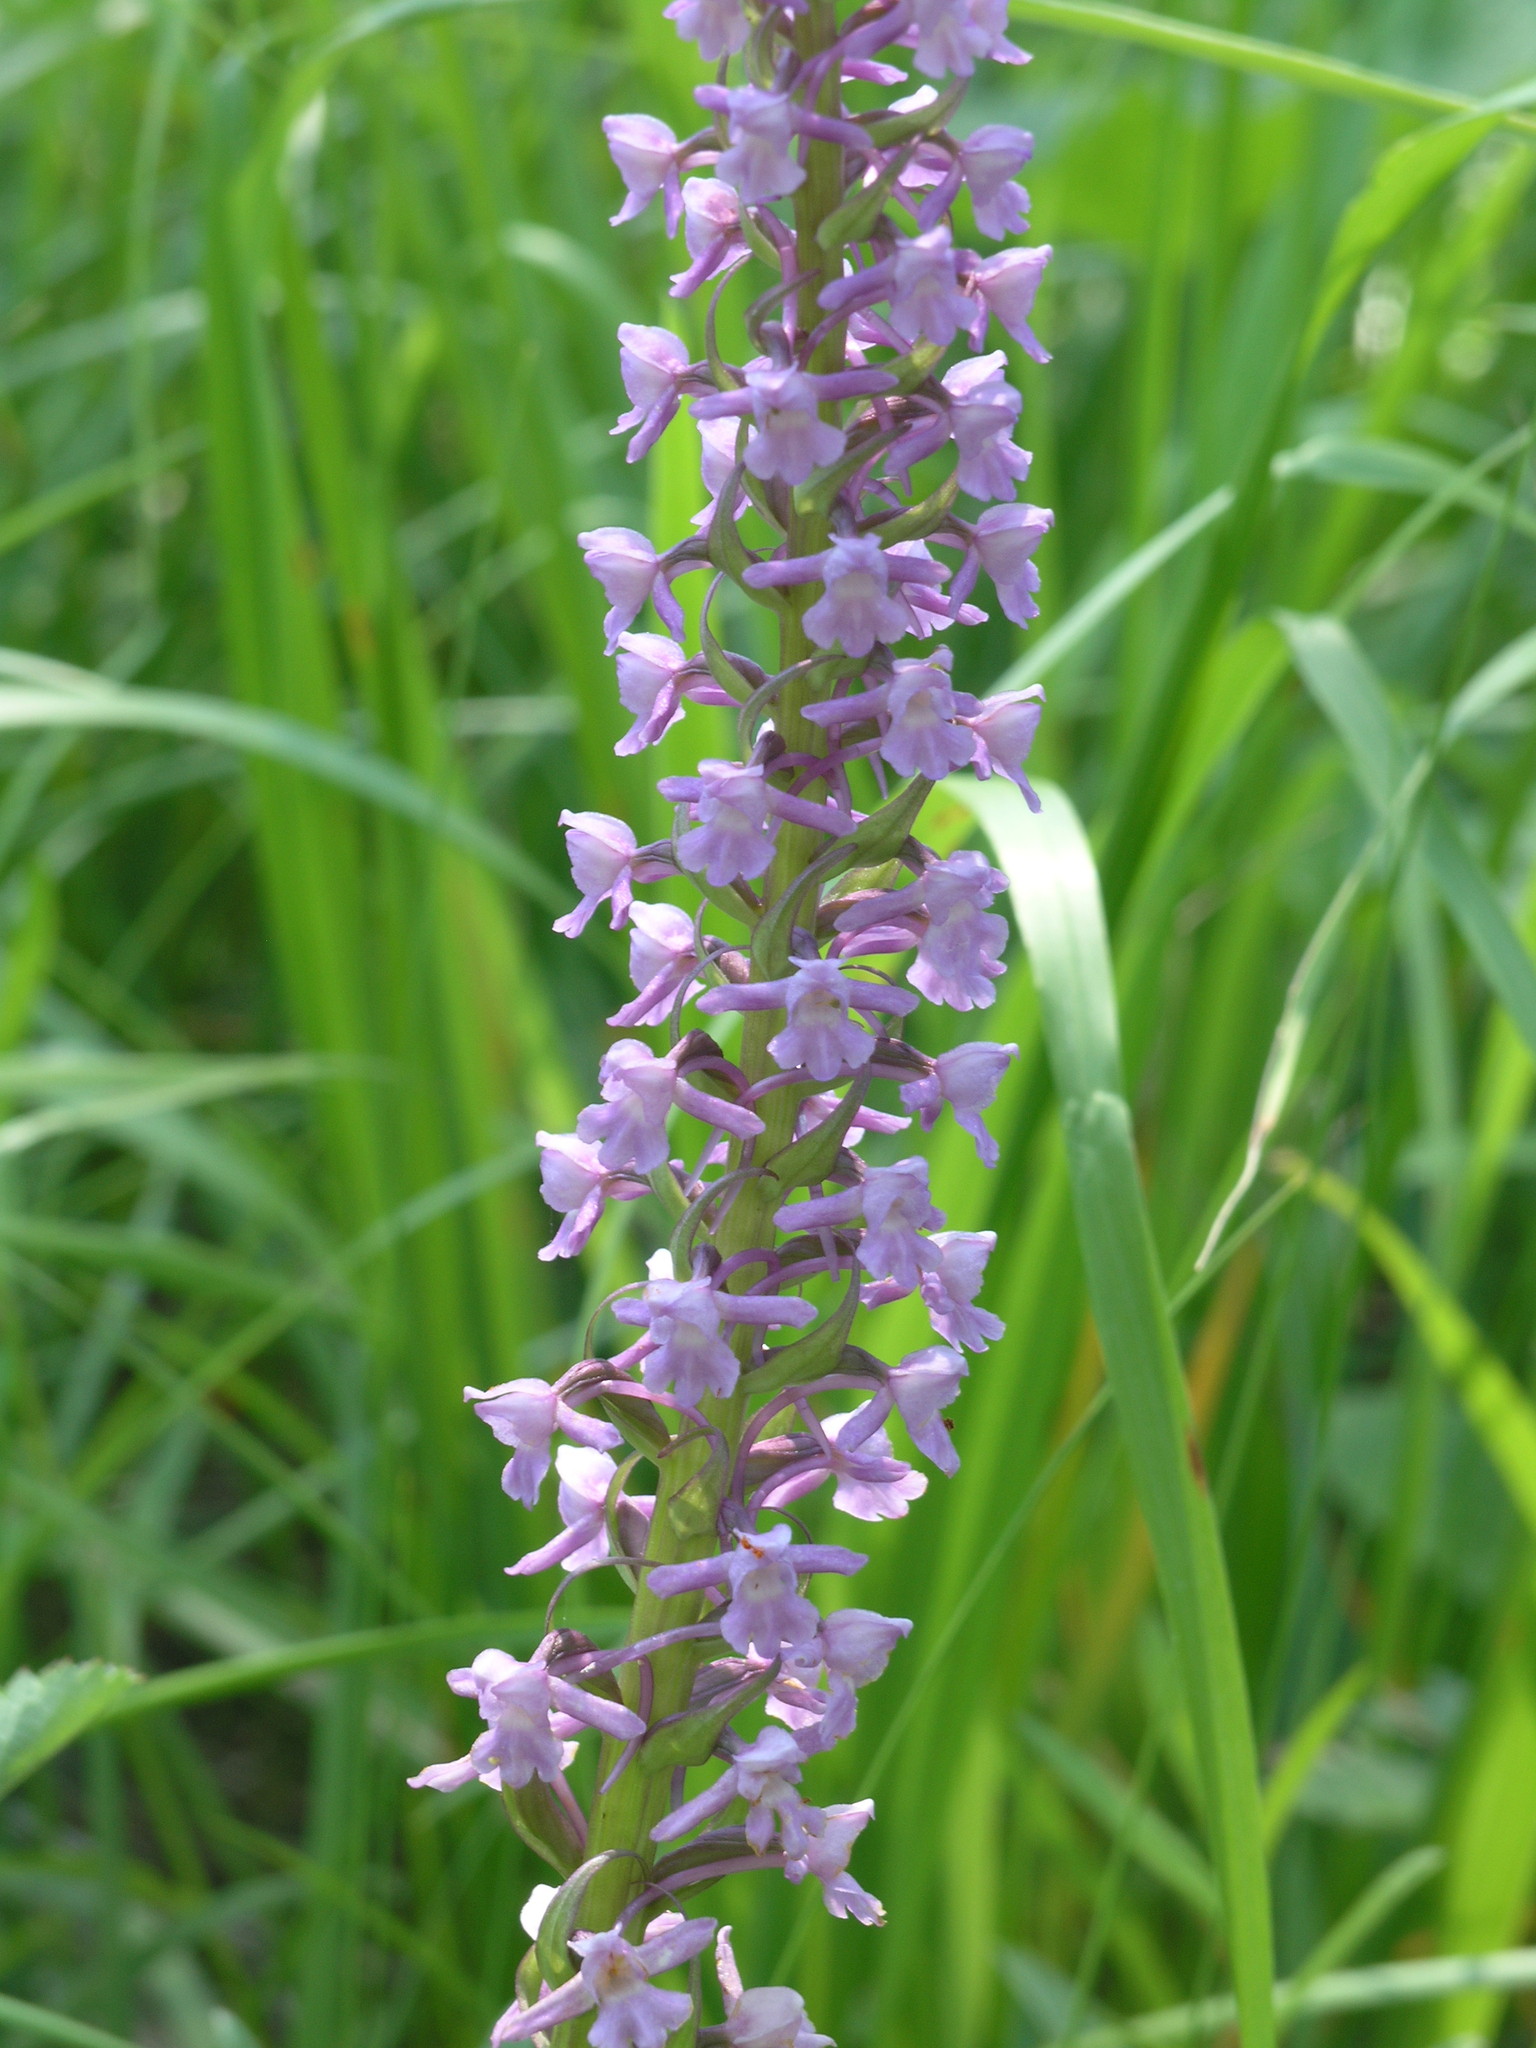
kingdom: Plantae
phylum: Tracheophyta
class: Liliopsida
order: Asparagales
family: Orchidaceae
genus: Gymnadenia
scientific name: Gymnadenia conopsea
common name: Fragrant orchid
